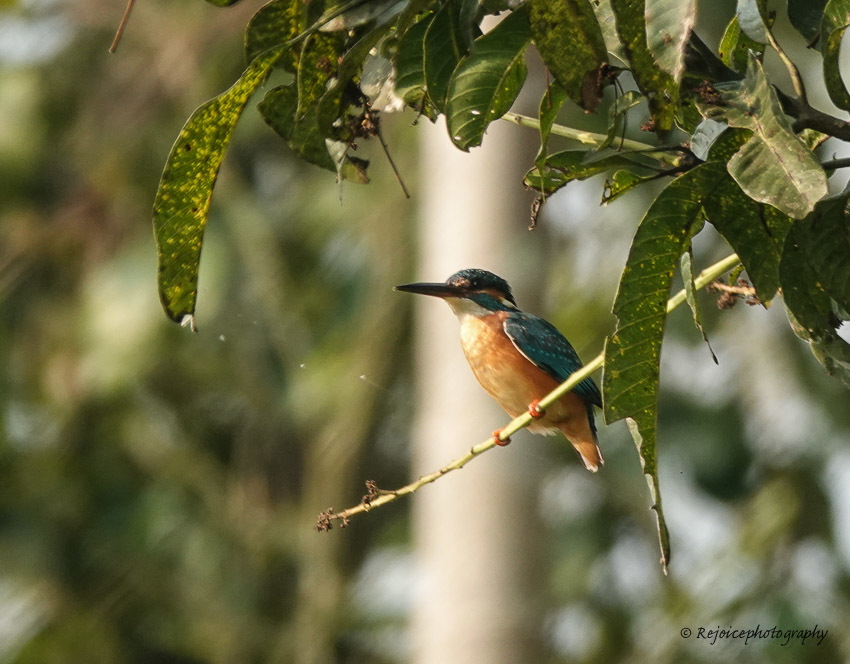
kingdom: Animalia
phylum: Chordata
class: Aves
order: Coraciiformes
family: Alcedinidae
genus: Alcedo
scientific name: Alcedo atthis
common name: Common kingfisher
